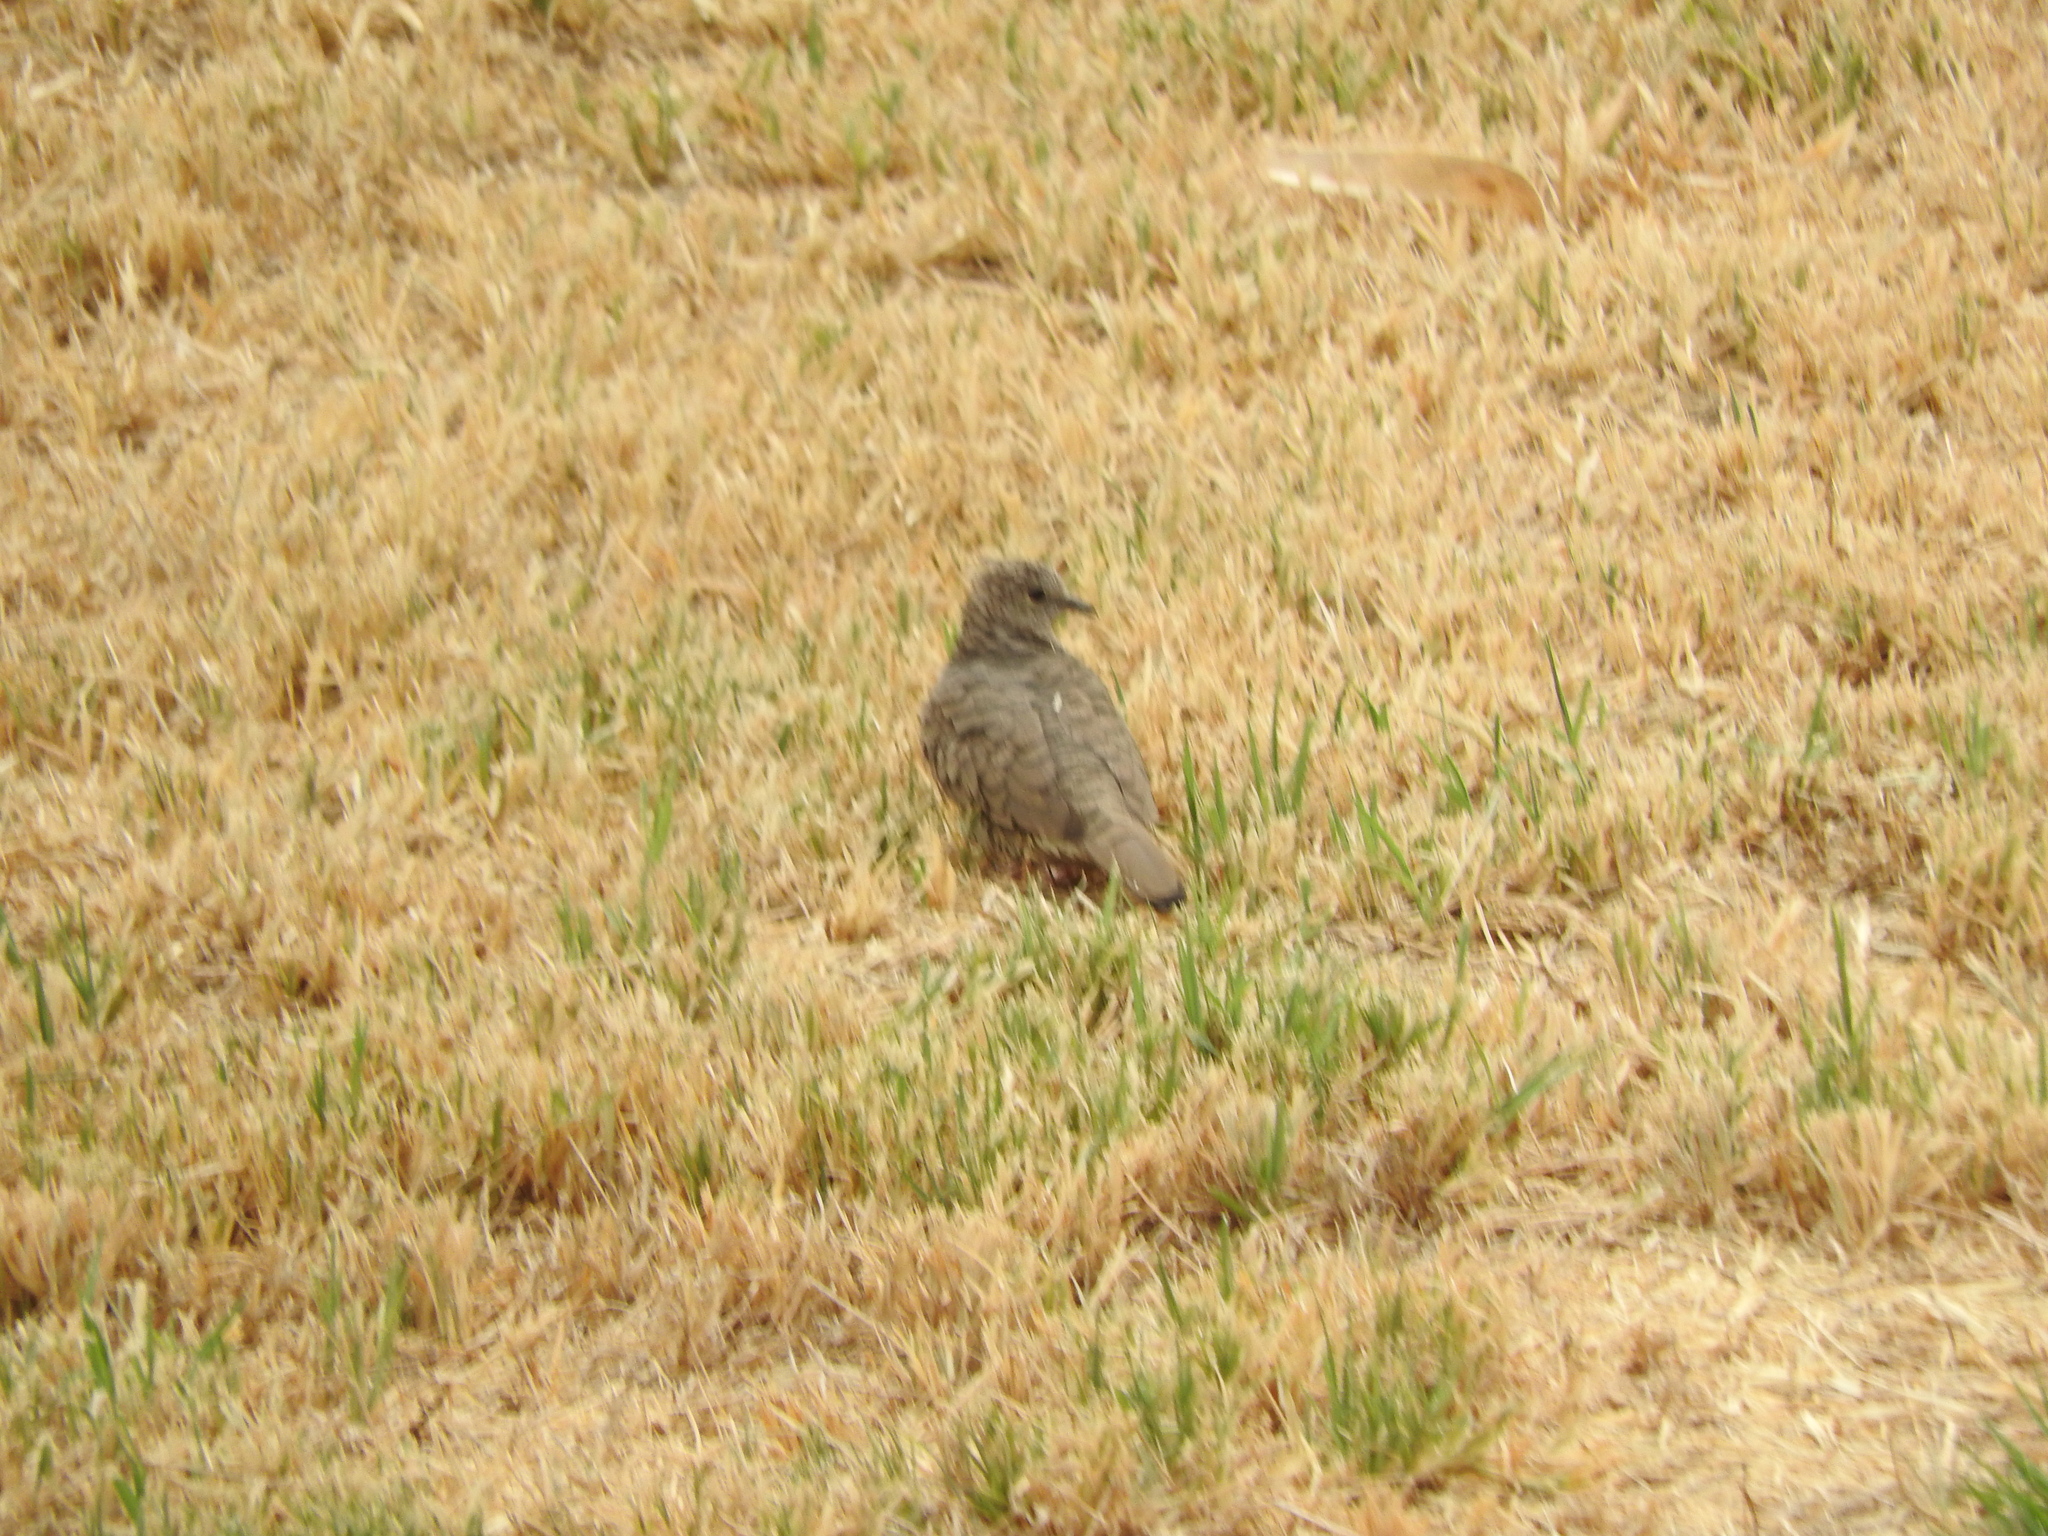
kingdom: Animalia
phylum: Chordata
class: Aves
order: Columbiformes
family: Columbidae
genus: Columbina
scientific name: Columbina inca
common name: Inca dove
